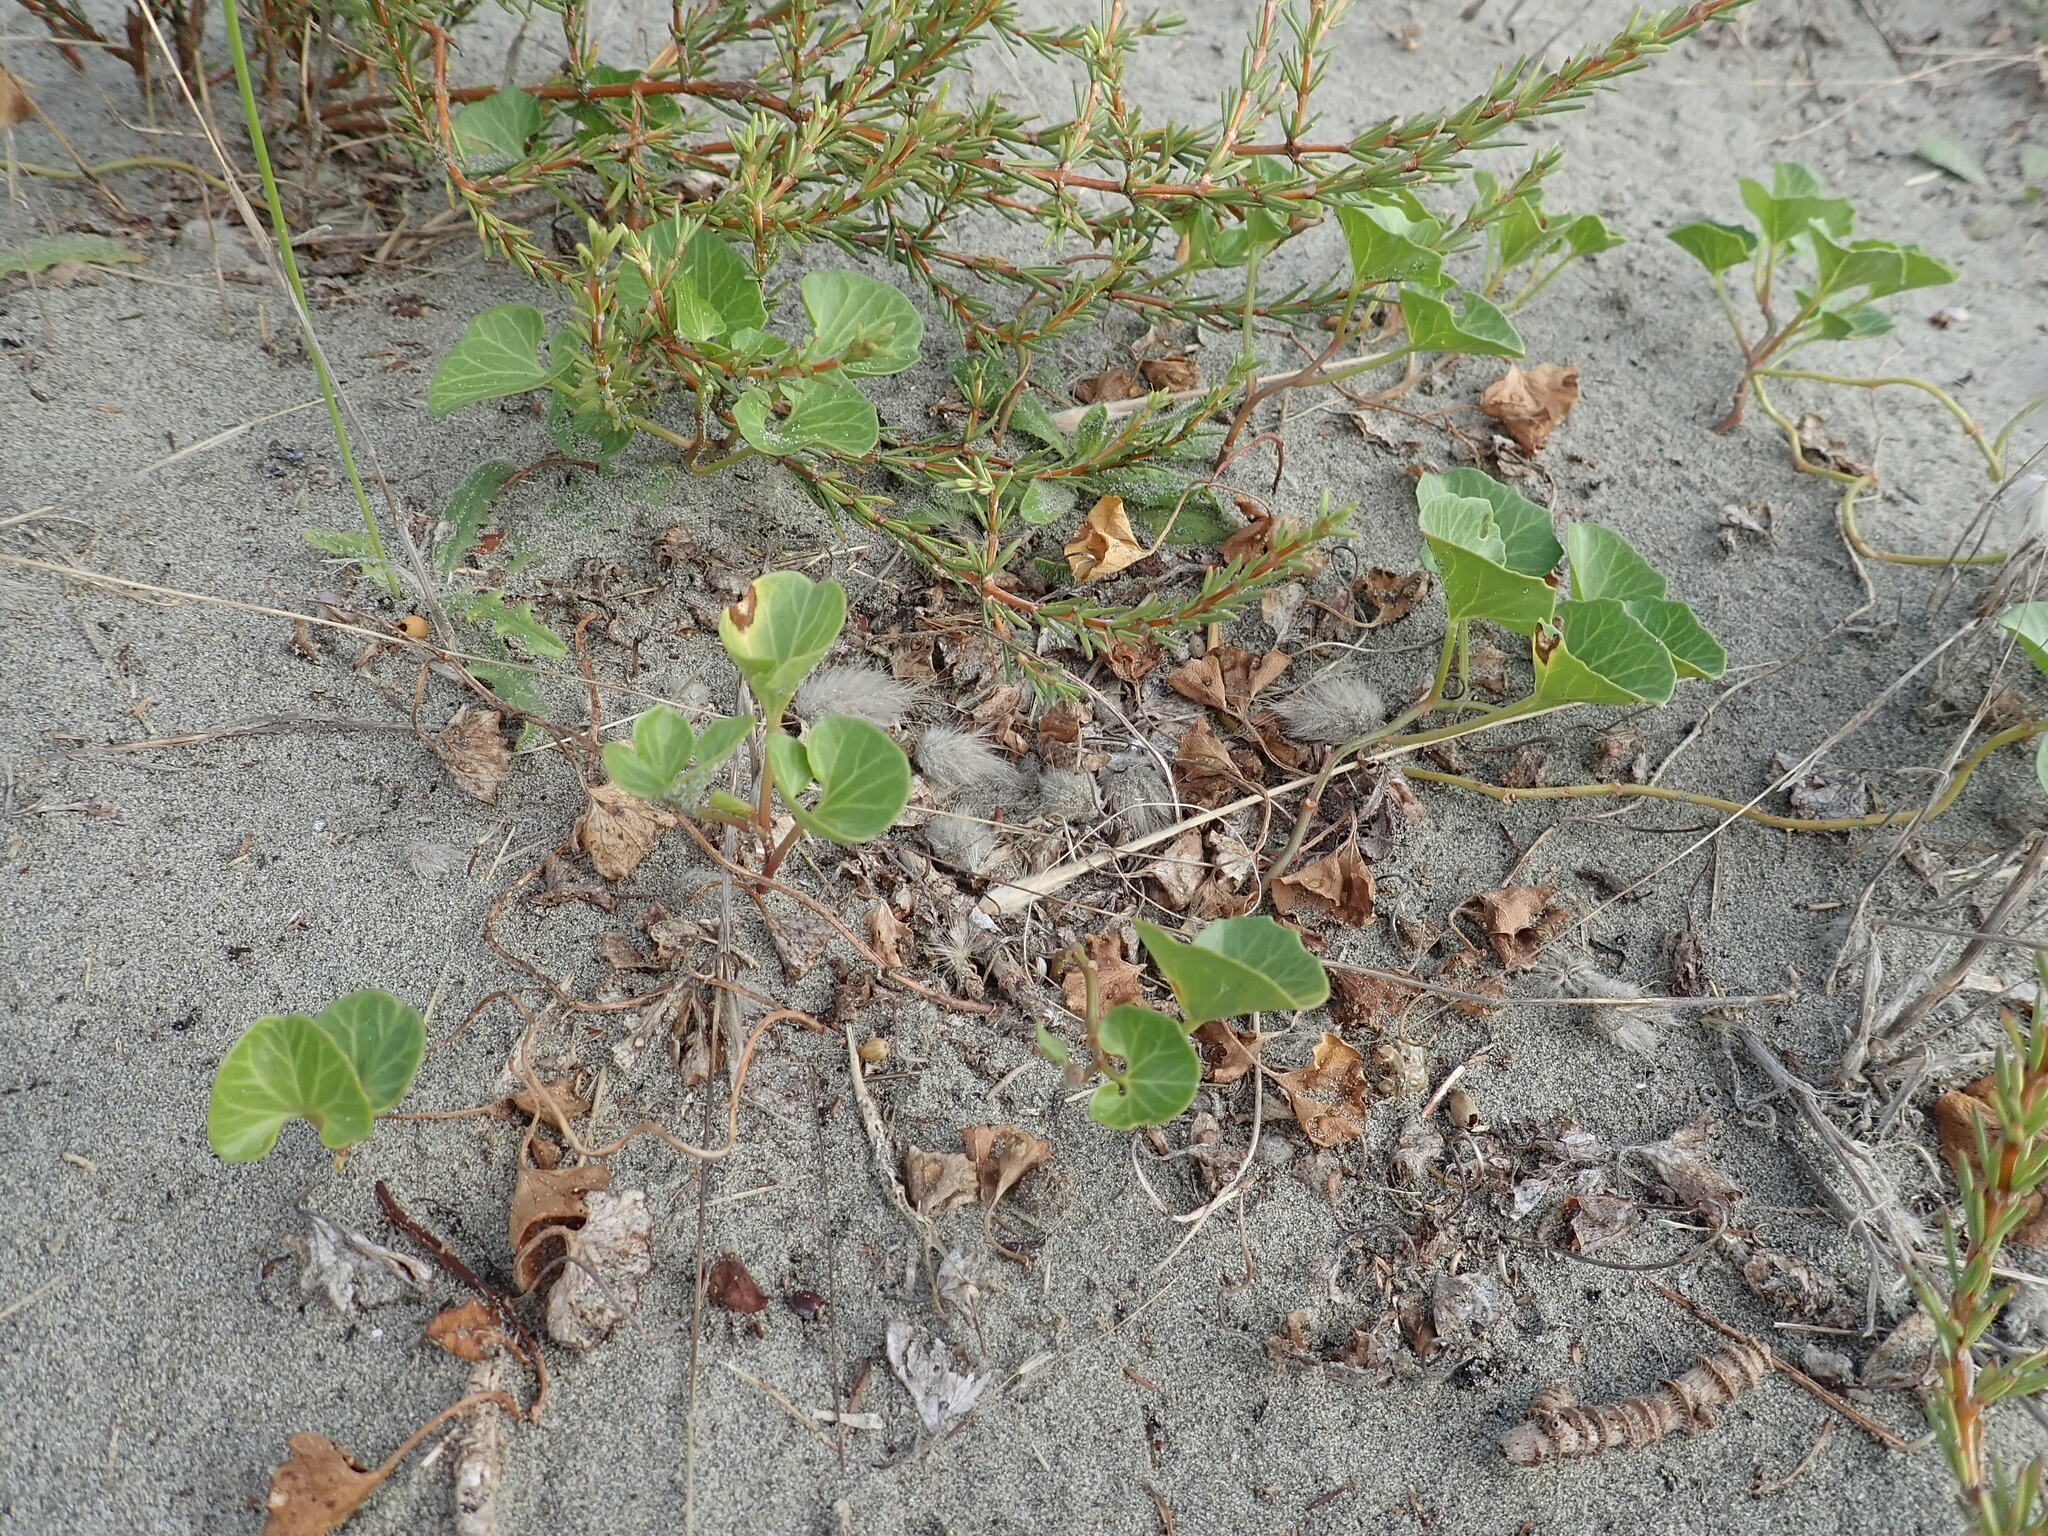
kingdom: Plantae
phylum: Tracheophyta
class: Magnoliopsida
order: Solanales
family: Convolvulaceae
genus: Calystegia
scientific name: Calystegia soldanella
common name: Sea bindweed
